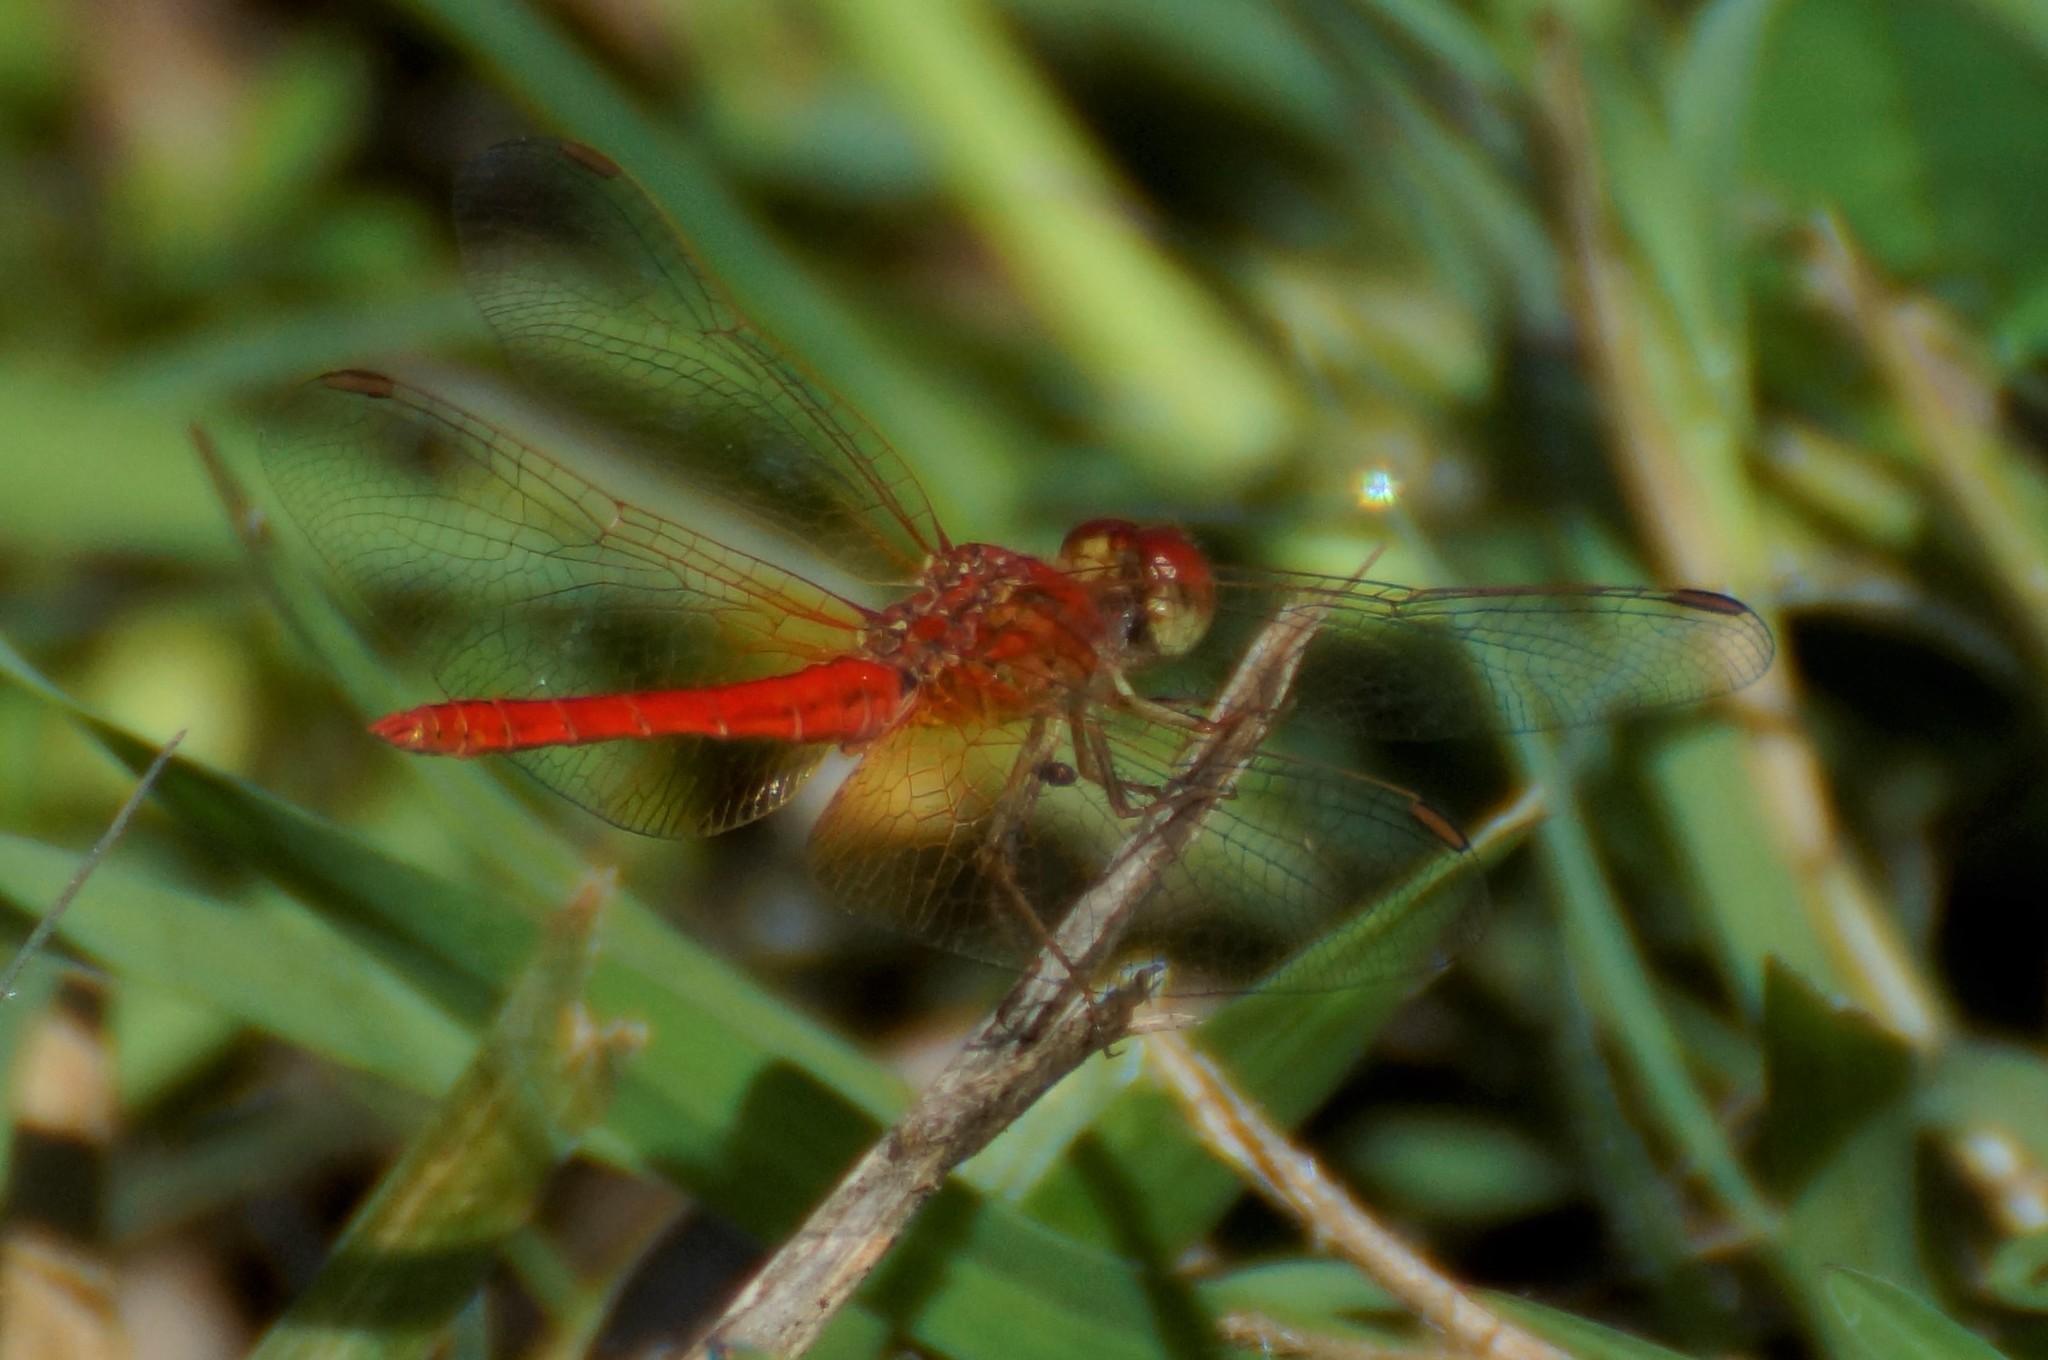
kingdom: Animalia
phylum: Arthropoda
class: Insecta
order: Odonata
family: Libellulidae
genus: Diplacodes
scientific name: Diplacodes haematodes
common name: Scarlet percher
